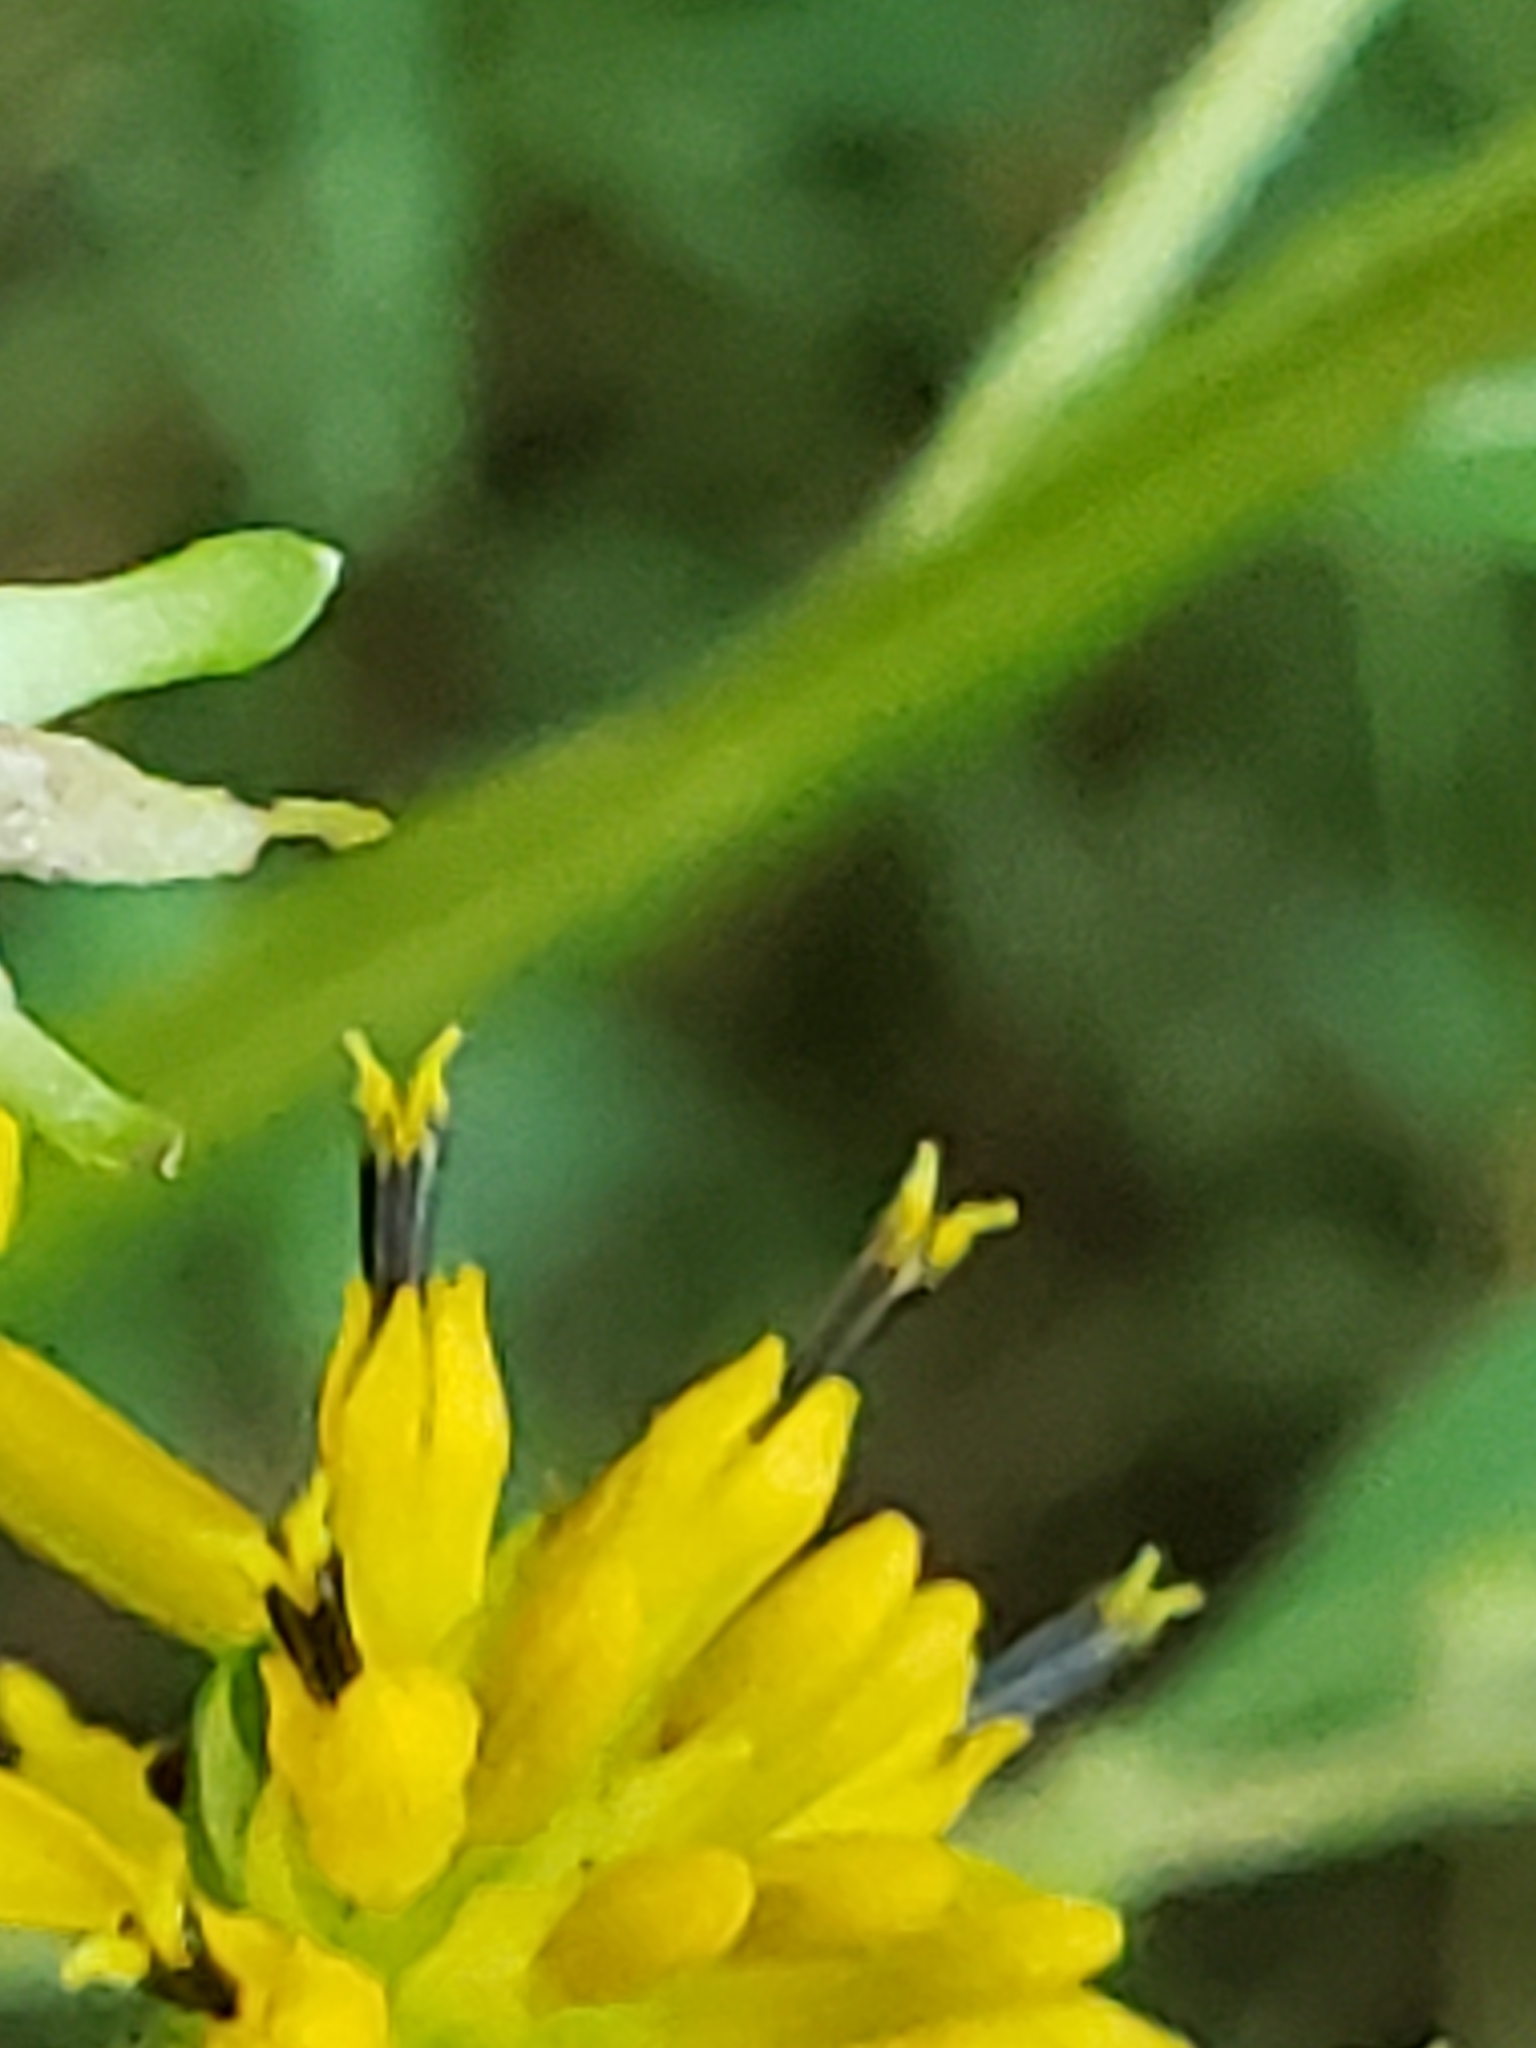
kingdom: Plantae
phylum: Tracheophyta
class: Magnoliopsida
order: Asterales
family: Asteraceae
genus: Verbesina
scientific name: Verbesina alternifolia
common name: Wingstem
